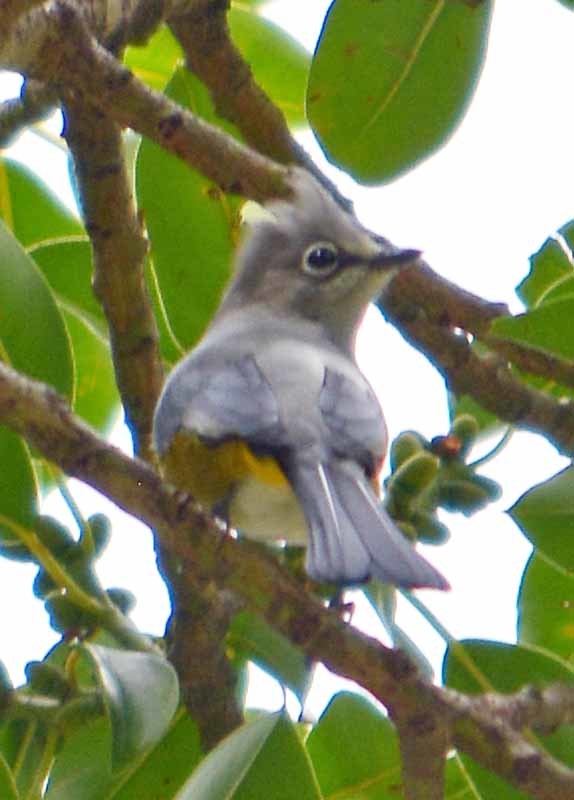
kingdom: Animalia
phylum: Chordata
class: Aves
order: Passeriformes
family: Ptilogonatidae
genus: Ptilogonys
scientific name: Ptilogonys cinereus
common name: Gray silky-flycatcher
